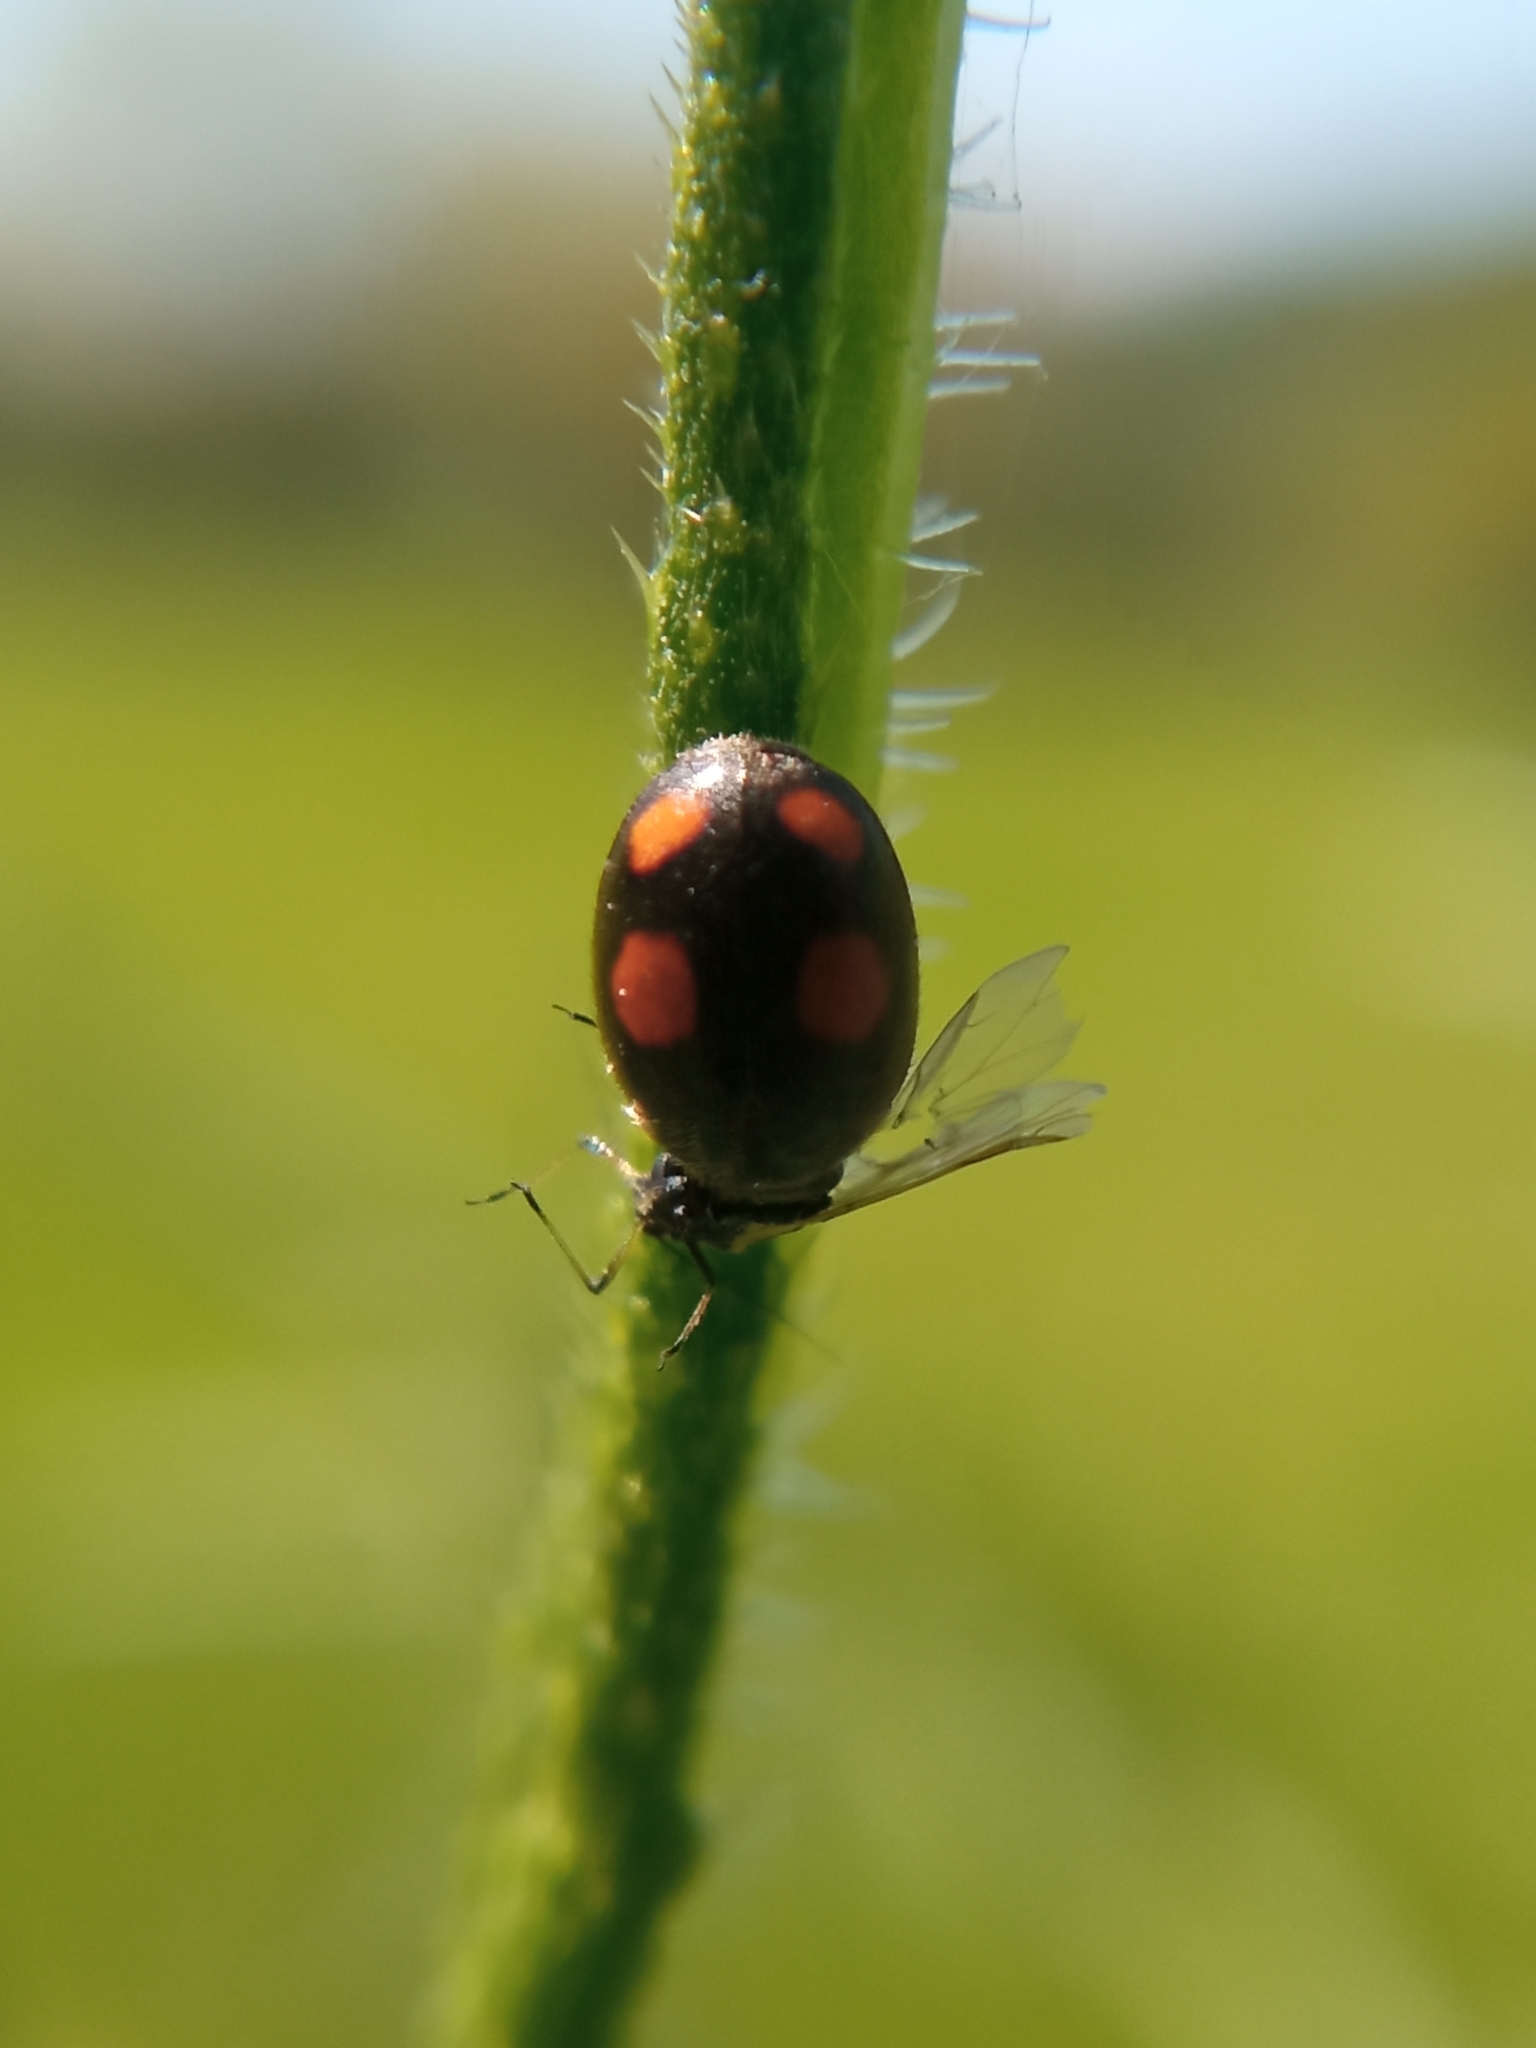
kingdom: Animalia
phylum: Arthropoda
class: Insecta
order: Coleoptera
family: Coccinellidae
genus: Platynaspis
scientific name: Platynaspis luteorubra
